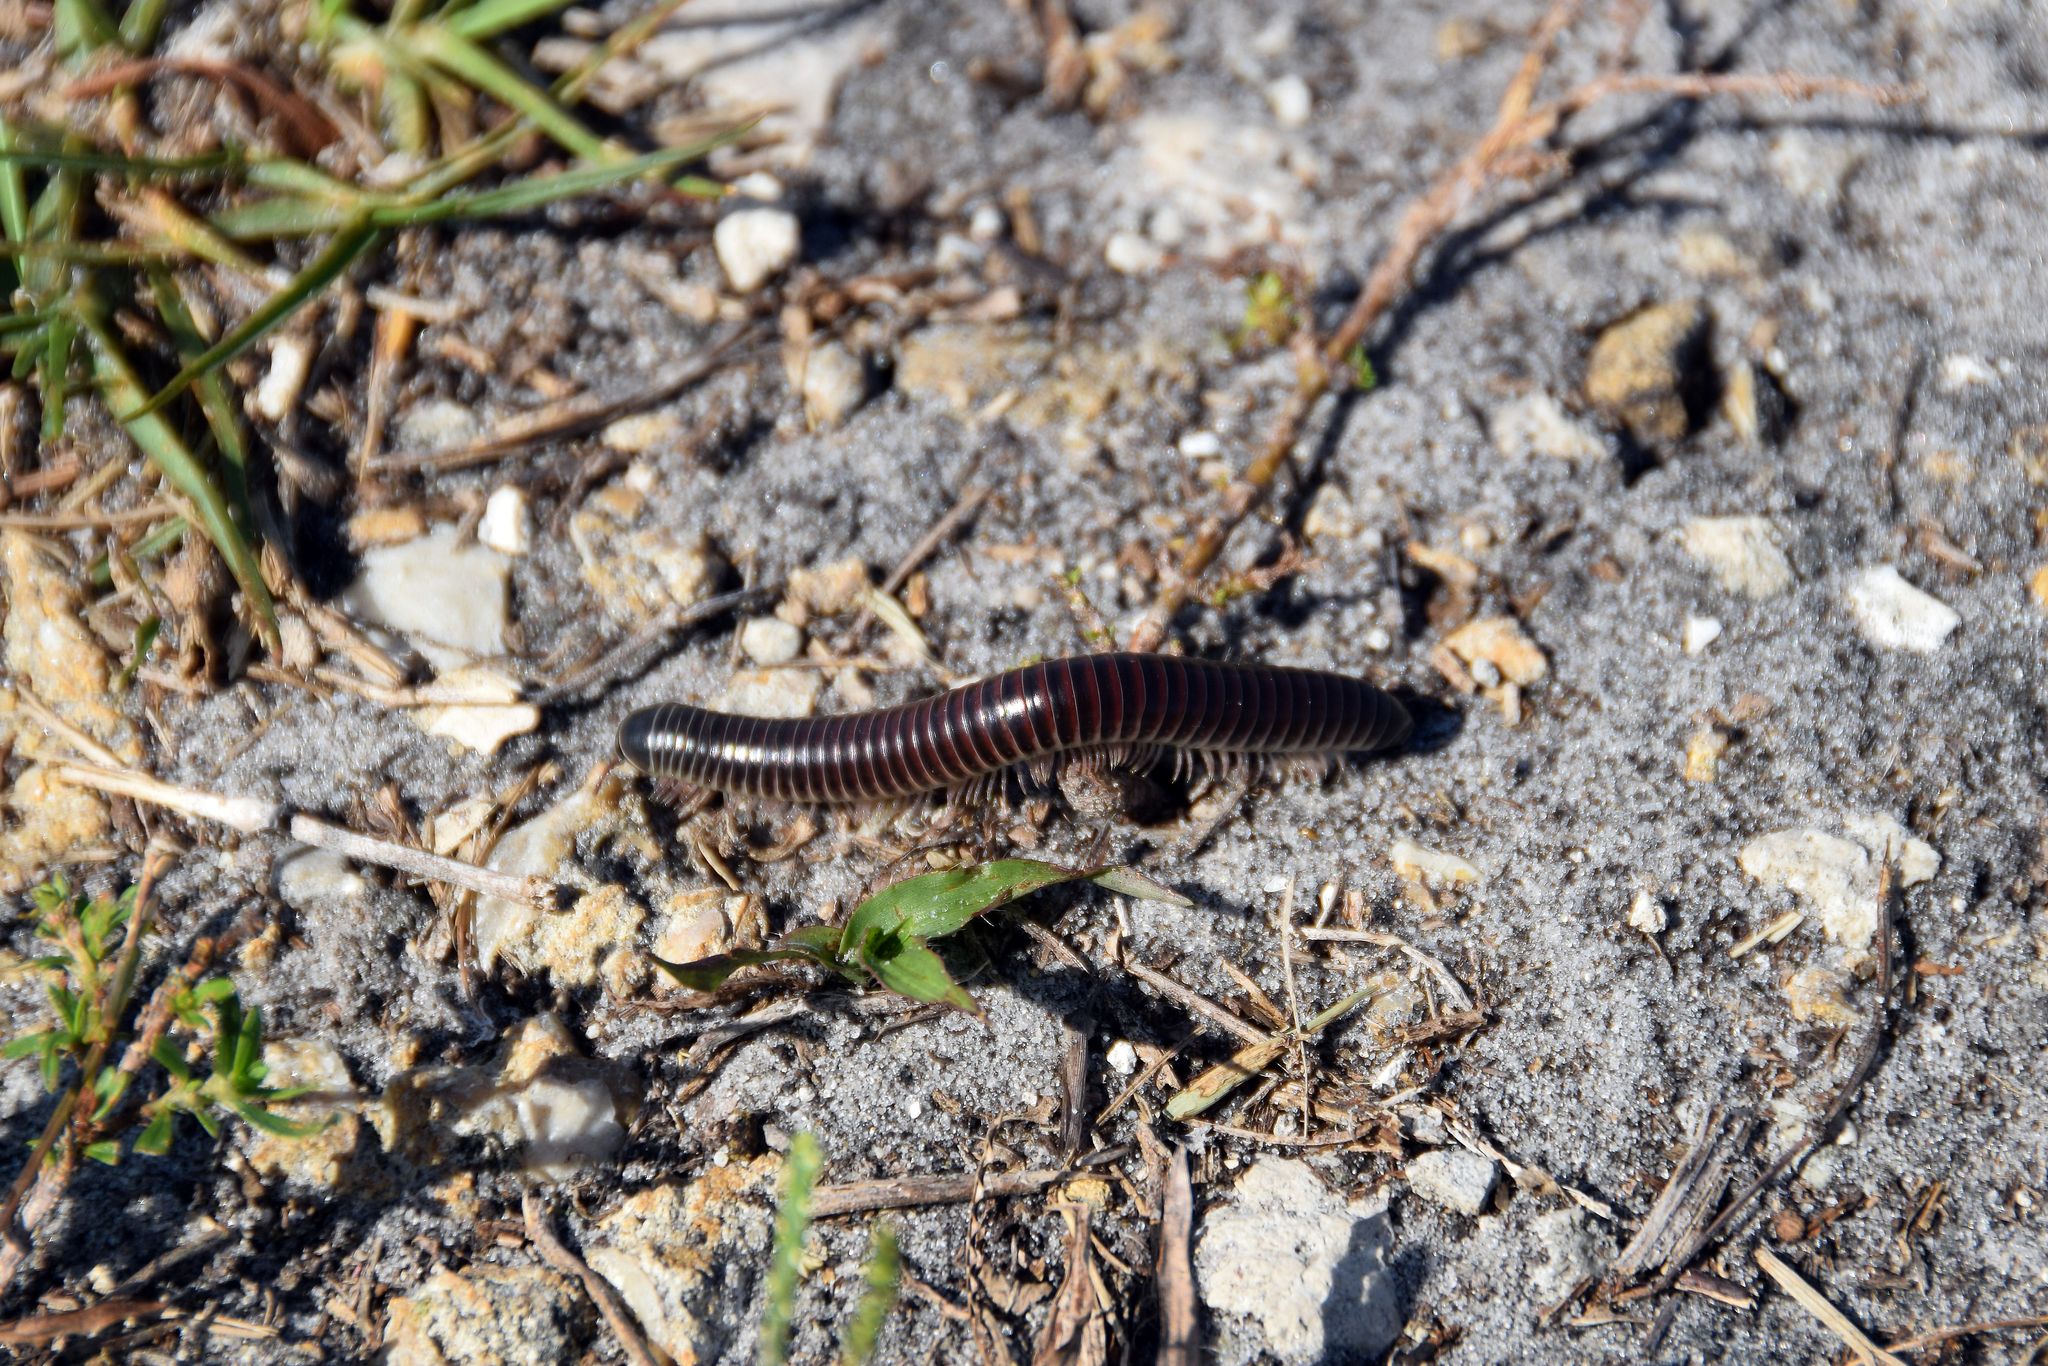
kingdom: Animalia
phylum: Arthropoda
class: Diplopoda
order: Spirobolida
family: Spirobolidae
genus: Chicobolus
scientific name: Chicobolus spinigerus
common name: Florida ivory millipede
